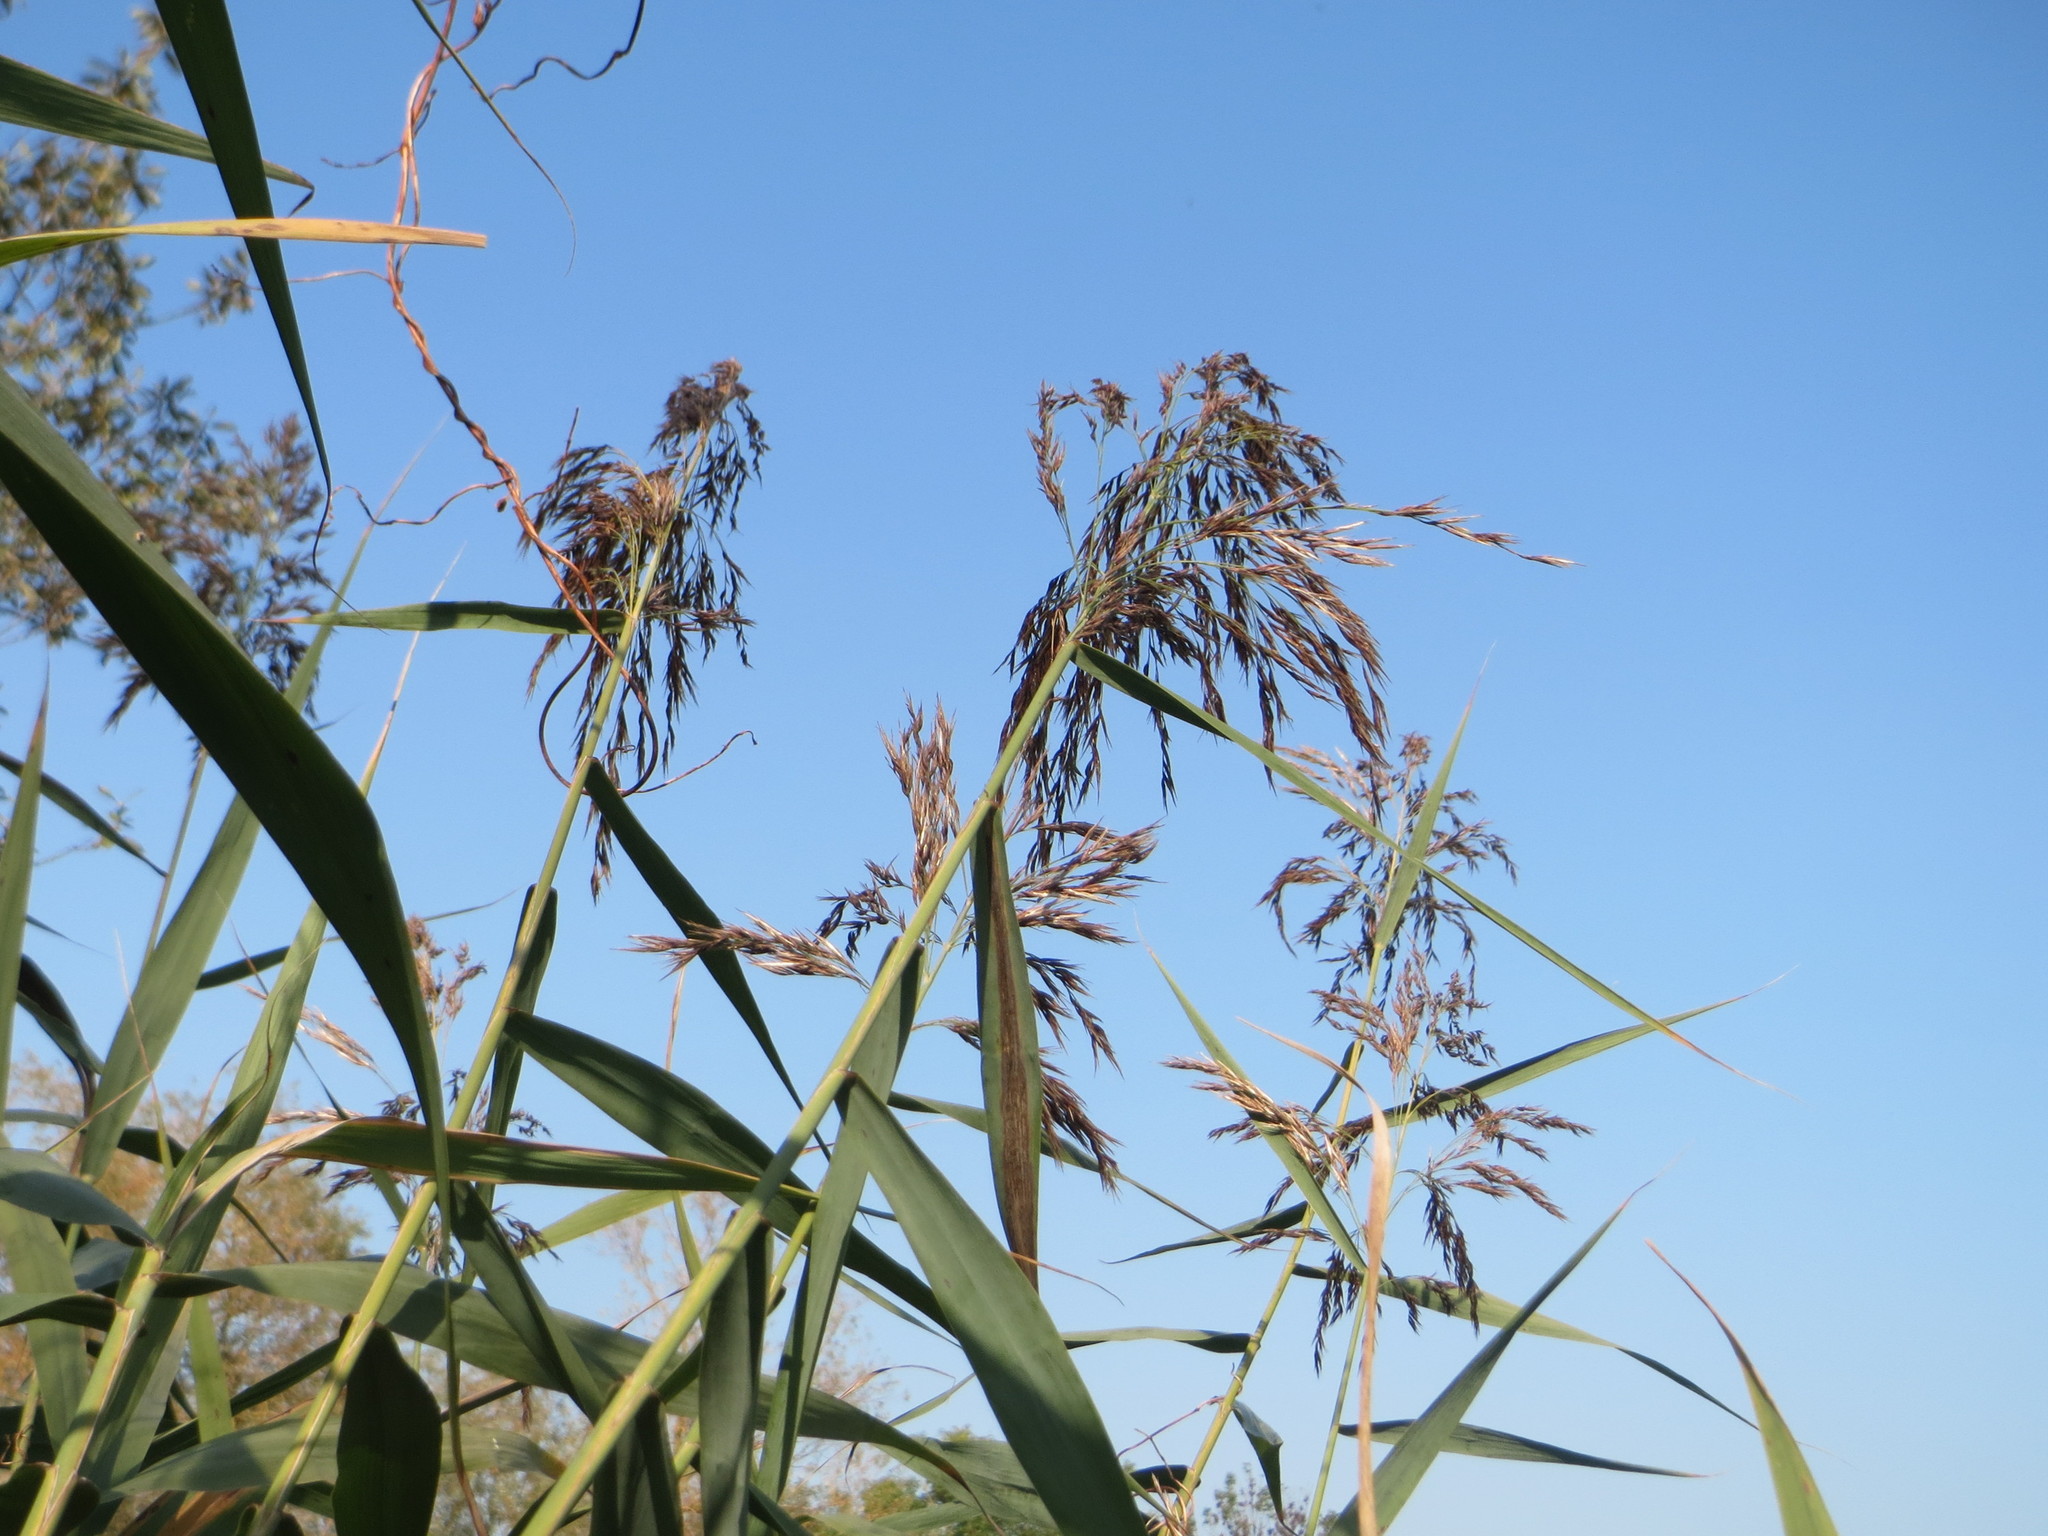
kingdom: Plantae
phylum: Tracheophyta
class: Liliopsida
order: Poales
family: Poaceae
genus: Phragmites
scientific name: Phragmites australis
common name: Common reed
